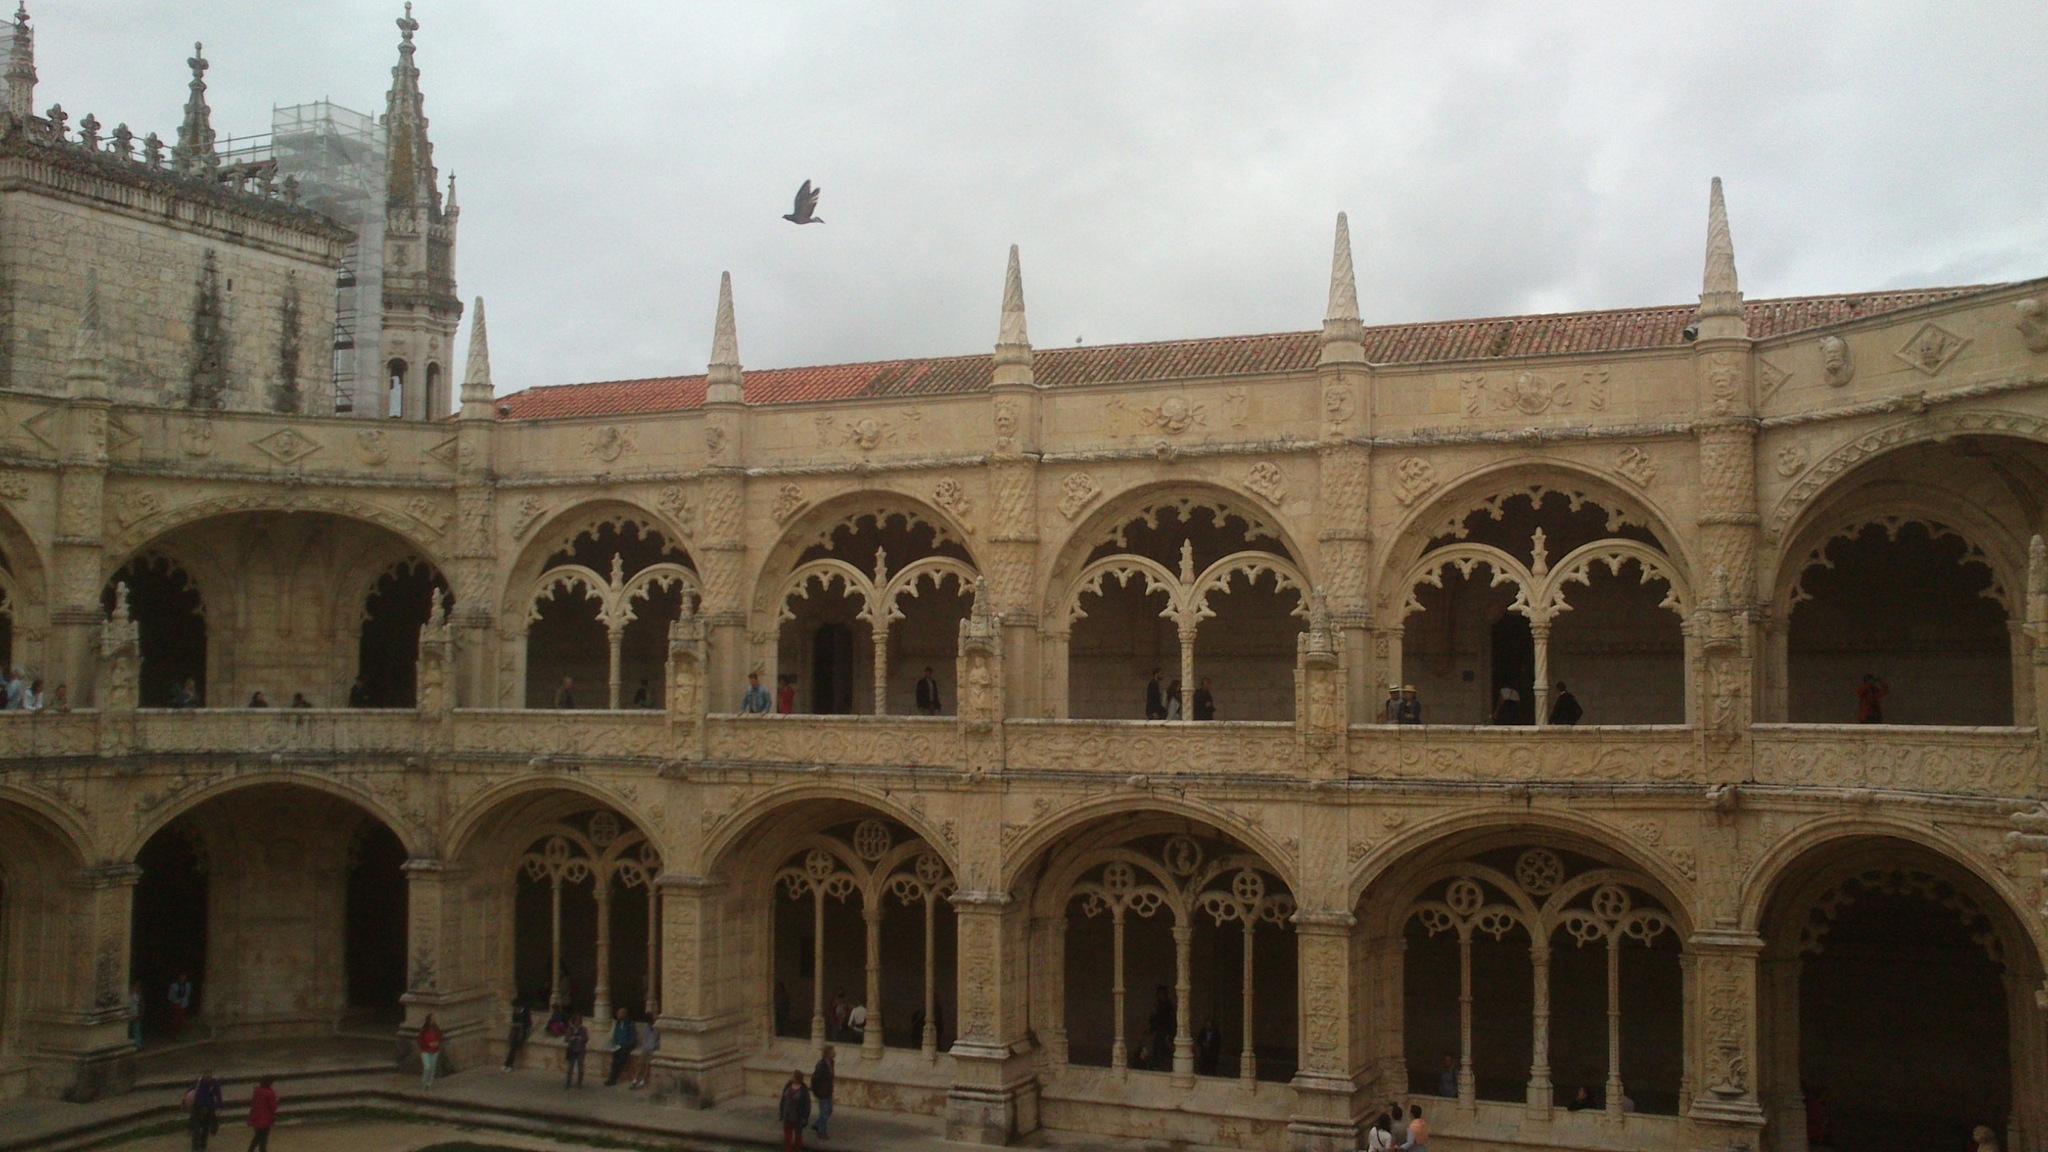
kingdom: Animalia
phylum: Chordata
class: Aves
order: Columbiformes
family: Columbidae
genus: Columba
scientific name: Columba livia
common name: Rock pigeon
